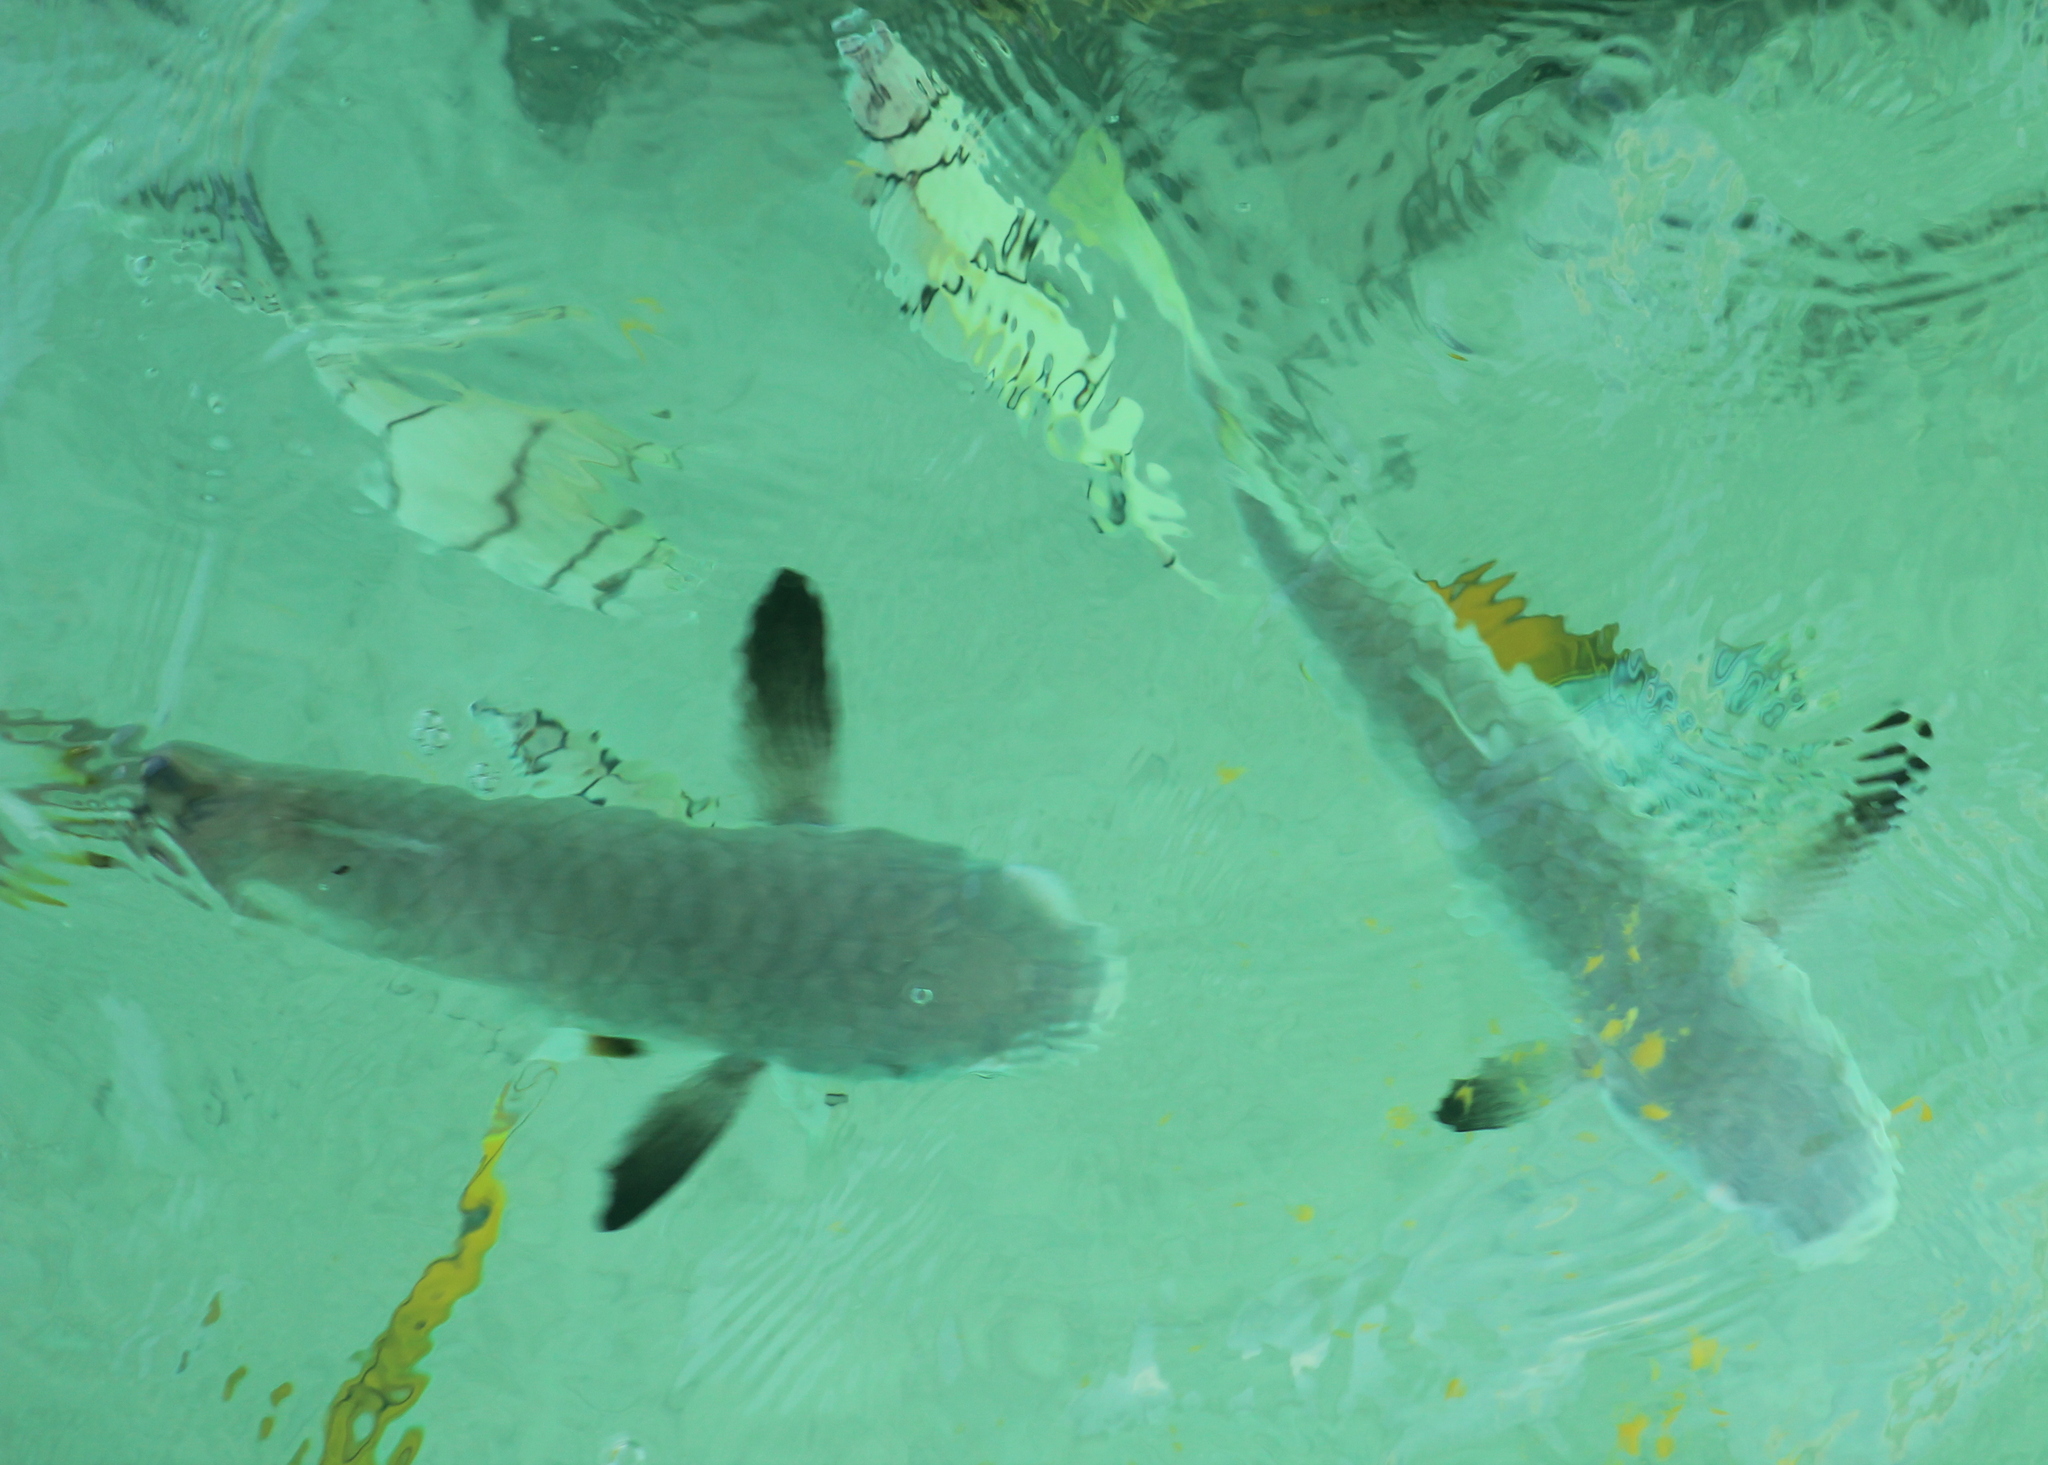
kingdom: Animalia
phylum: Chordata
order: Mugiliformes
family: Mugilidae
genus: Ellochelon
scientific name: Ellochelon vaigiensis
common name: Squaretail mullet
